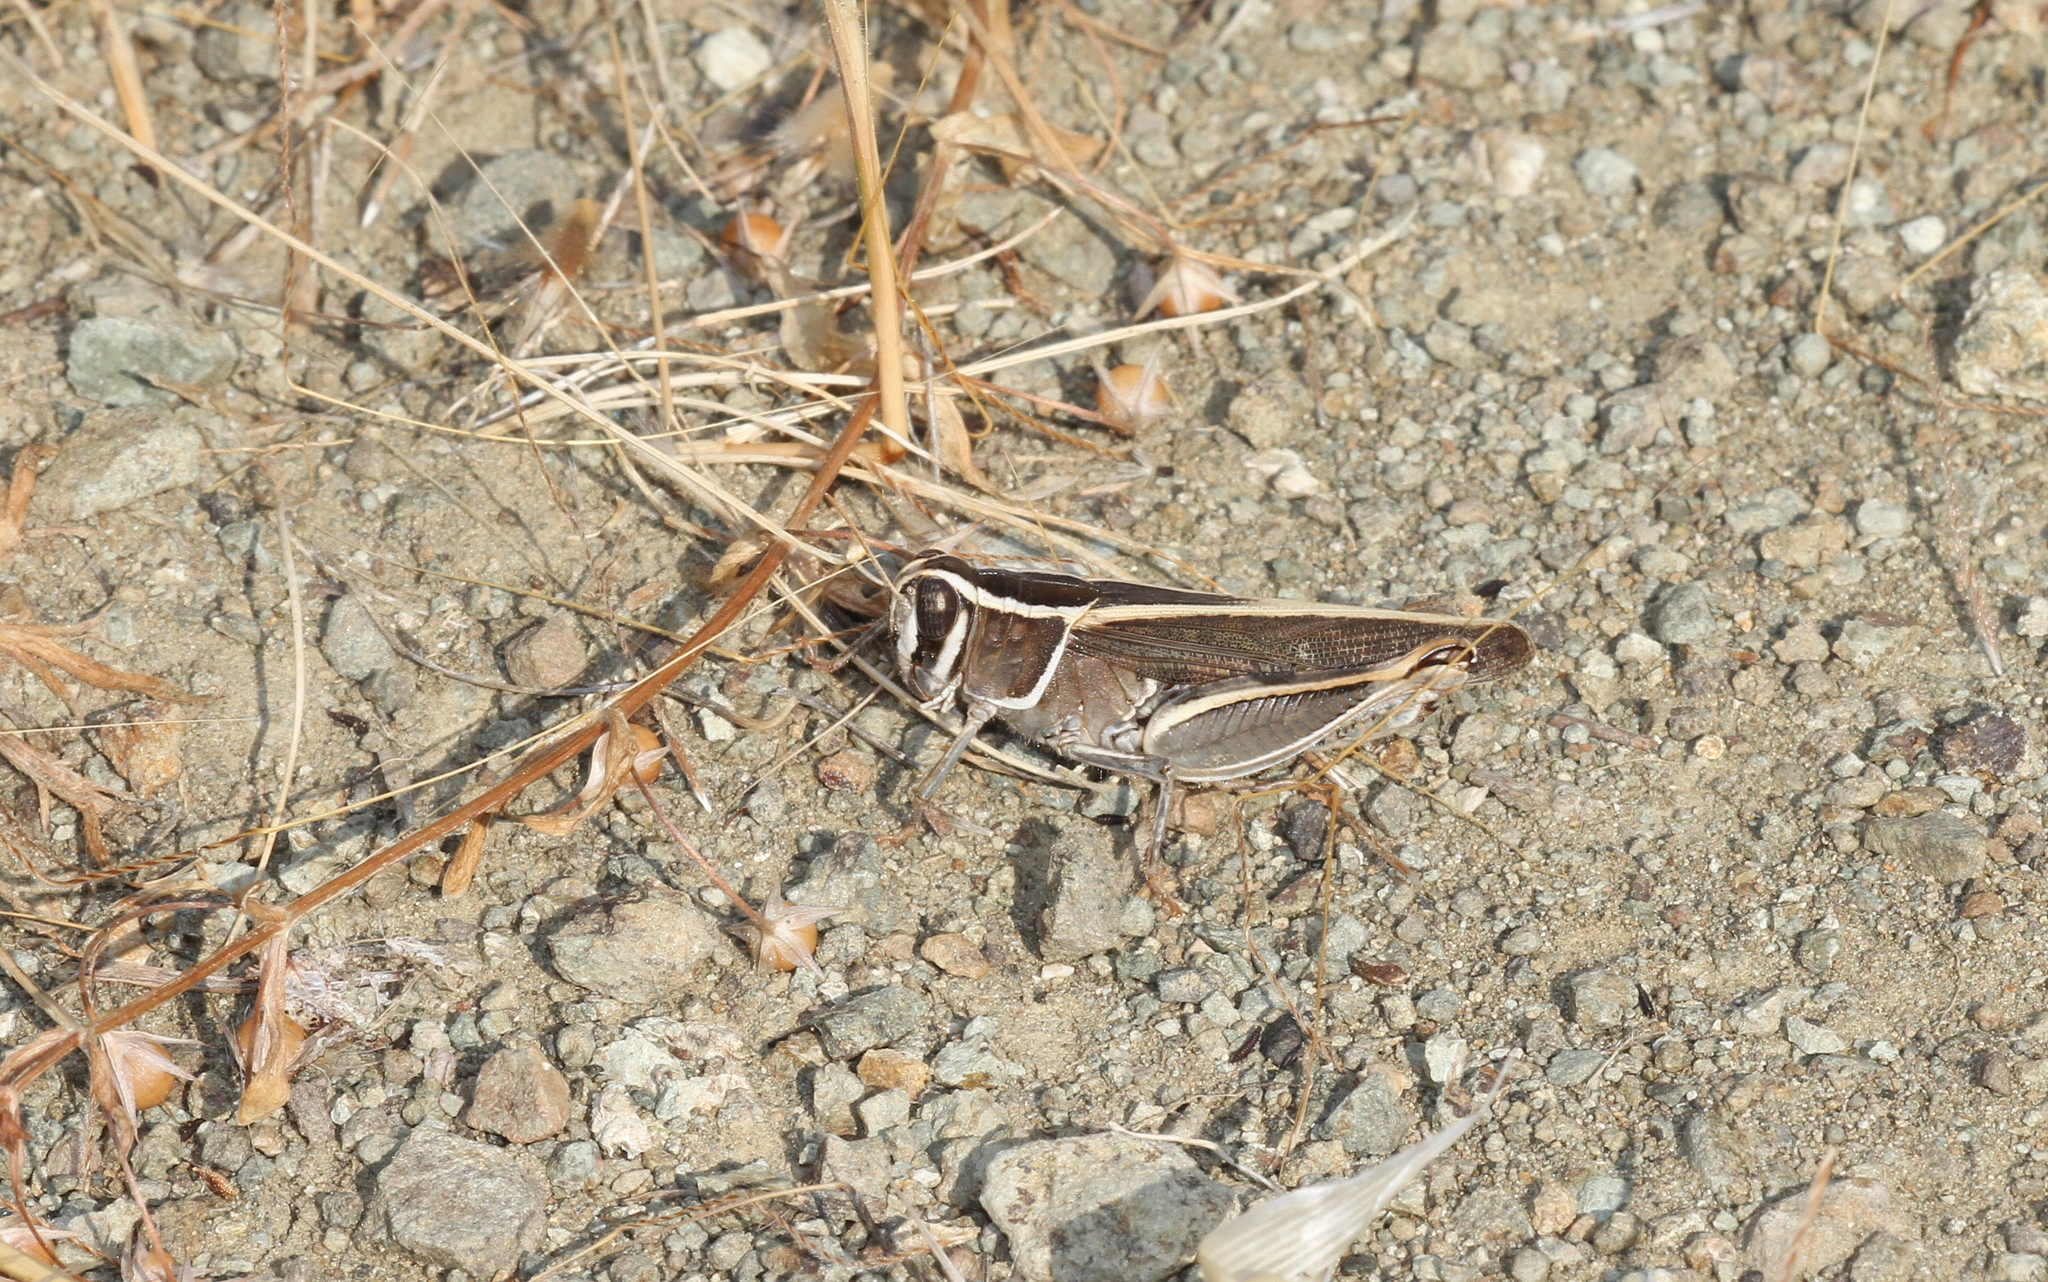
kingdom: Animalia
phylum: Arthropoda
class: Insecta
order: Orthoptera
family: Acrididae
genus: Calliptamus
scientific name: Calliptamus barbarus
